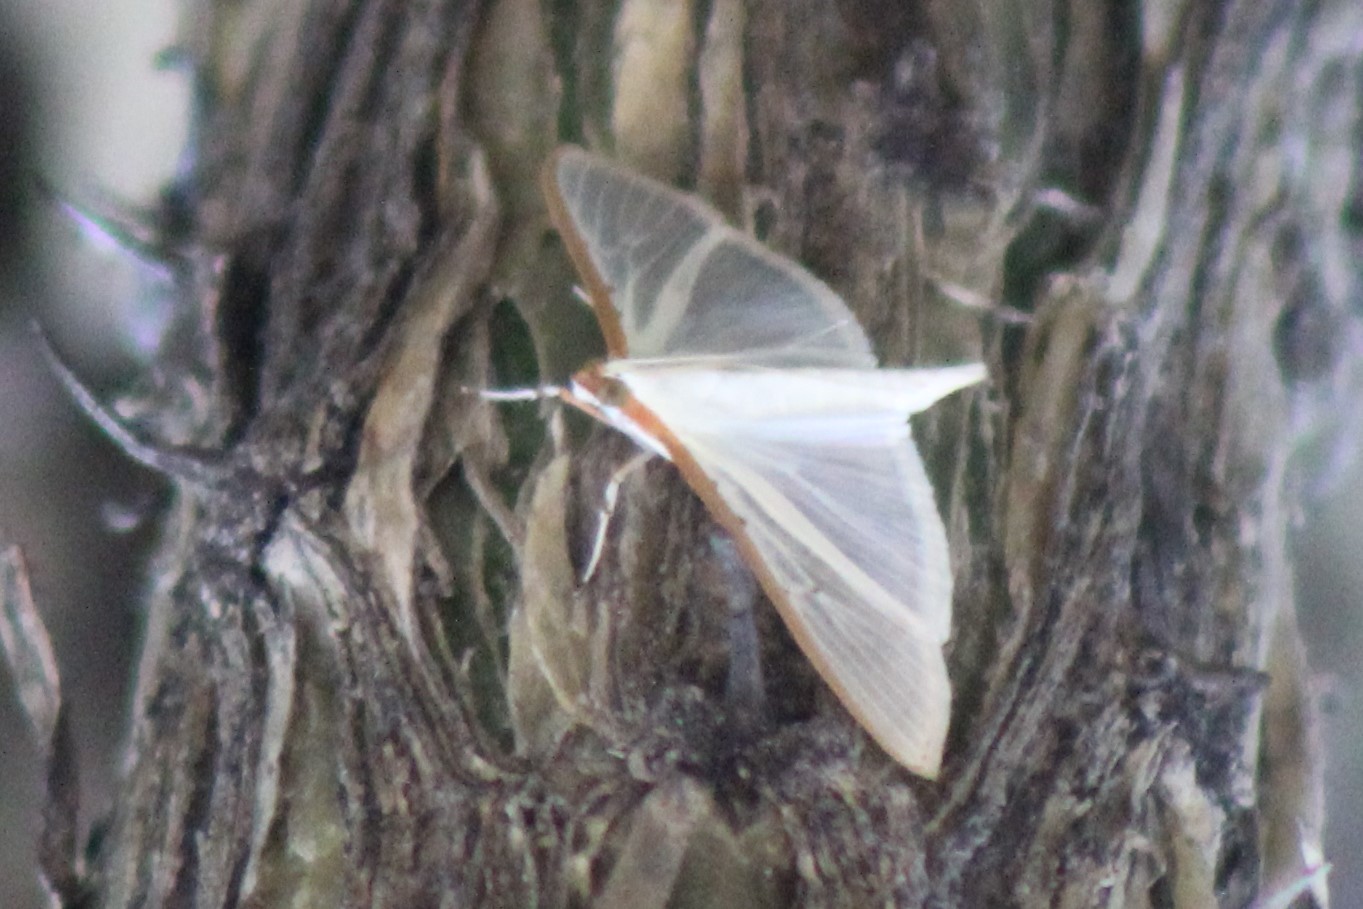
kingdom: Animalia
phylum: Arthropoda
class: Insecta
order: Lepidoptera
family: Crambidae
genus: Palpita
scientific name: Palpita quadristigmalis
